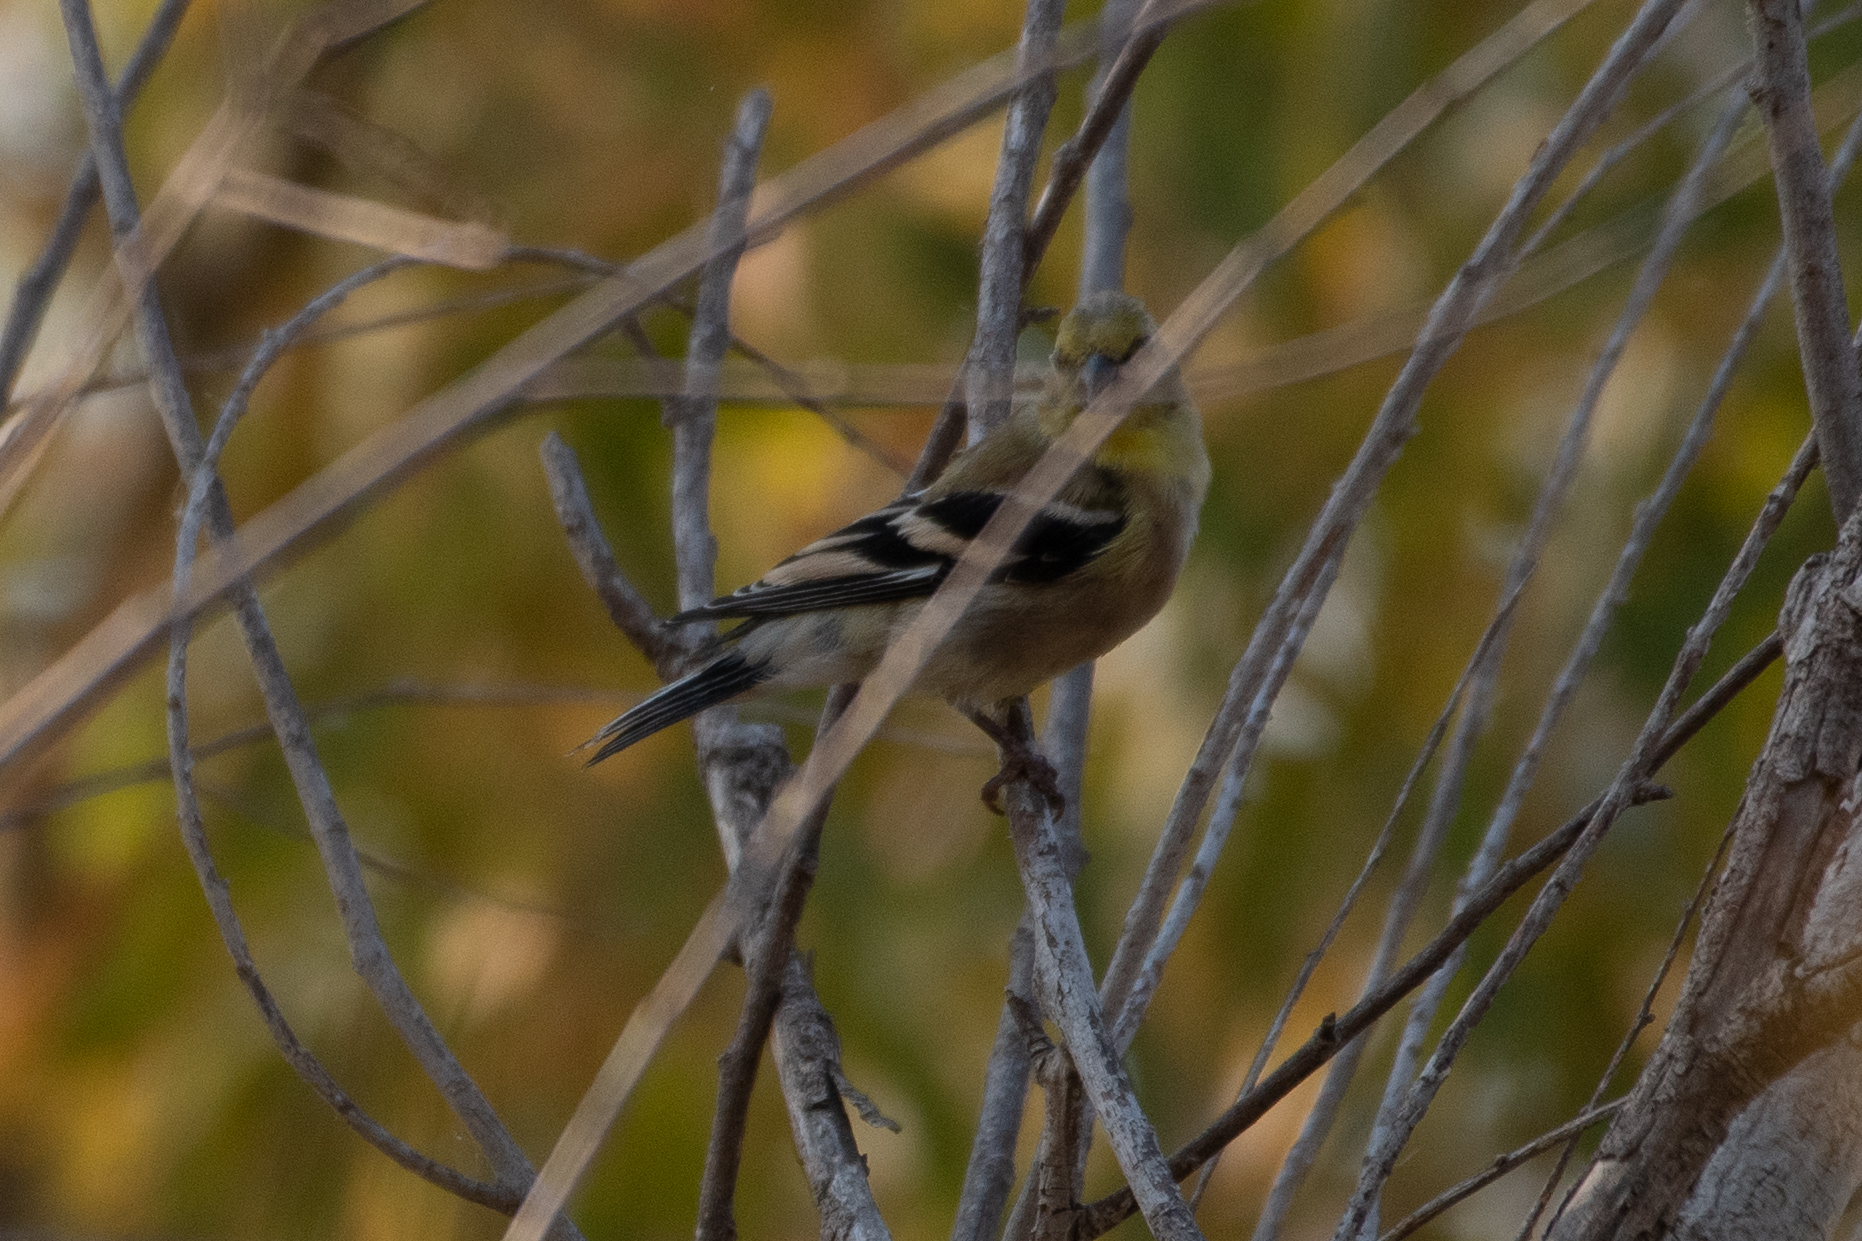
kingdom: Animalia
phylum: Chordata
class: Aves
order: Passeriformes
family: Fringillidae
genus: Spinus
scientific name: Spinus tristis
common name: American goldfinch
